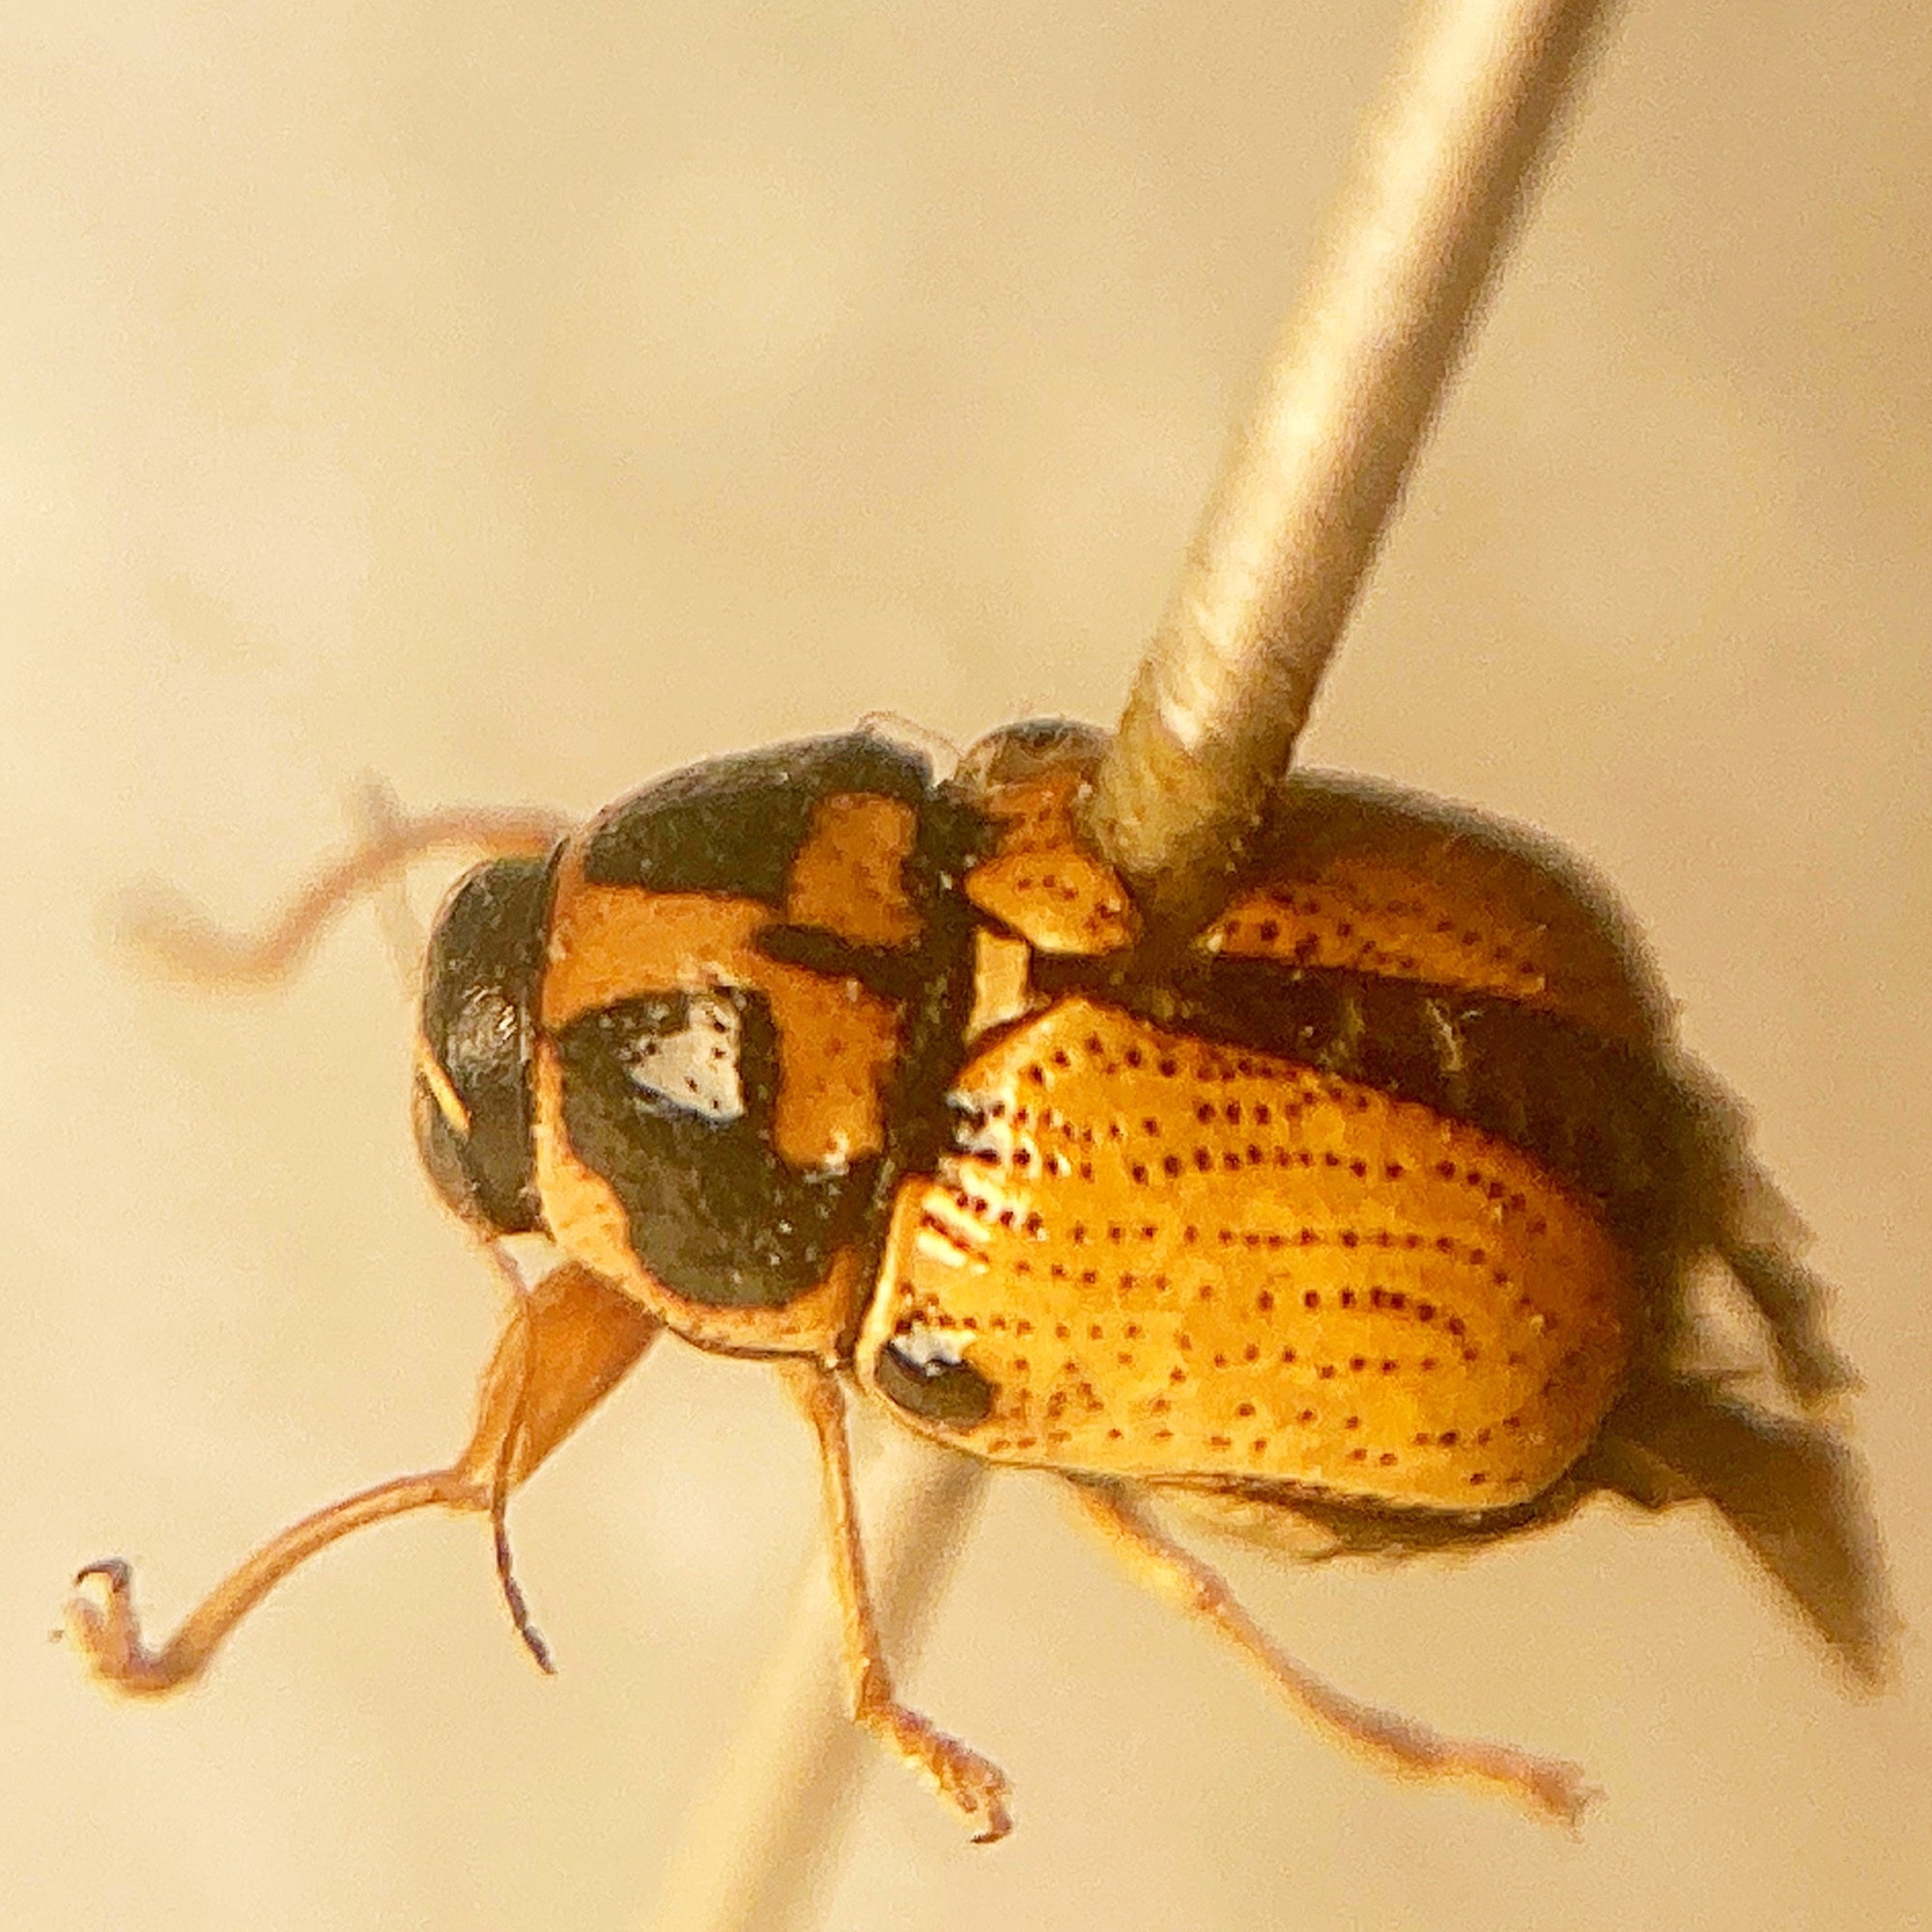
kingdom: Animalia
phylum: Arthropoda
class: Insecta
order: Coleoptera
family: Chrysomelidae
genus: Griburius
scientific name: Griburius scutellaris
